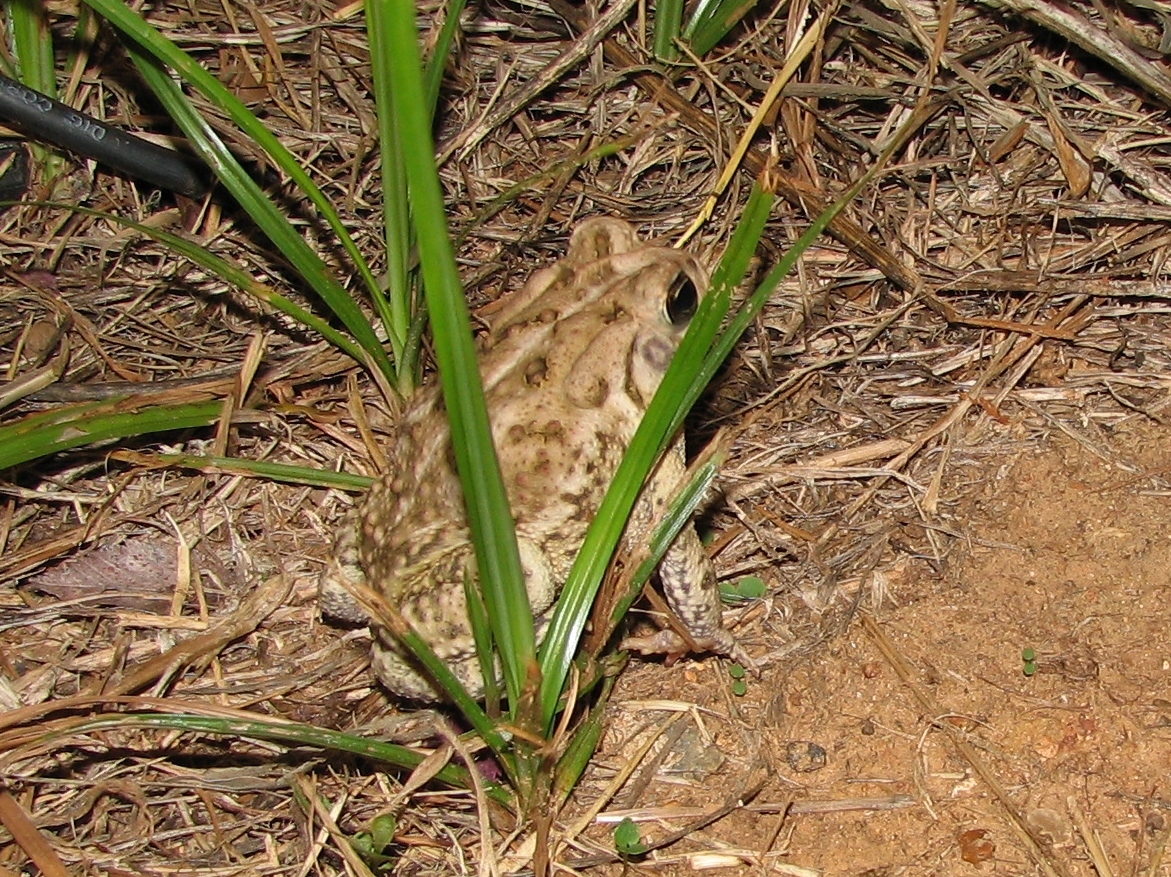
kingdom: Animalia
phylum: Chordata
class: Amphibia
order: Anura
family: Bufonidae
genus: Anaxyrus
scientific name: Anaxyrus
